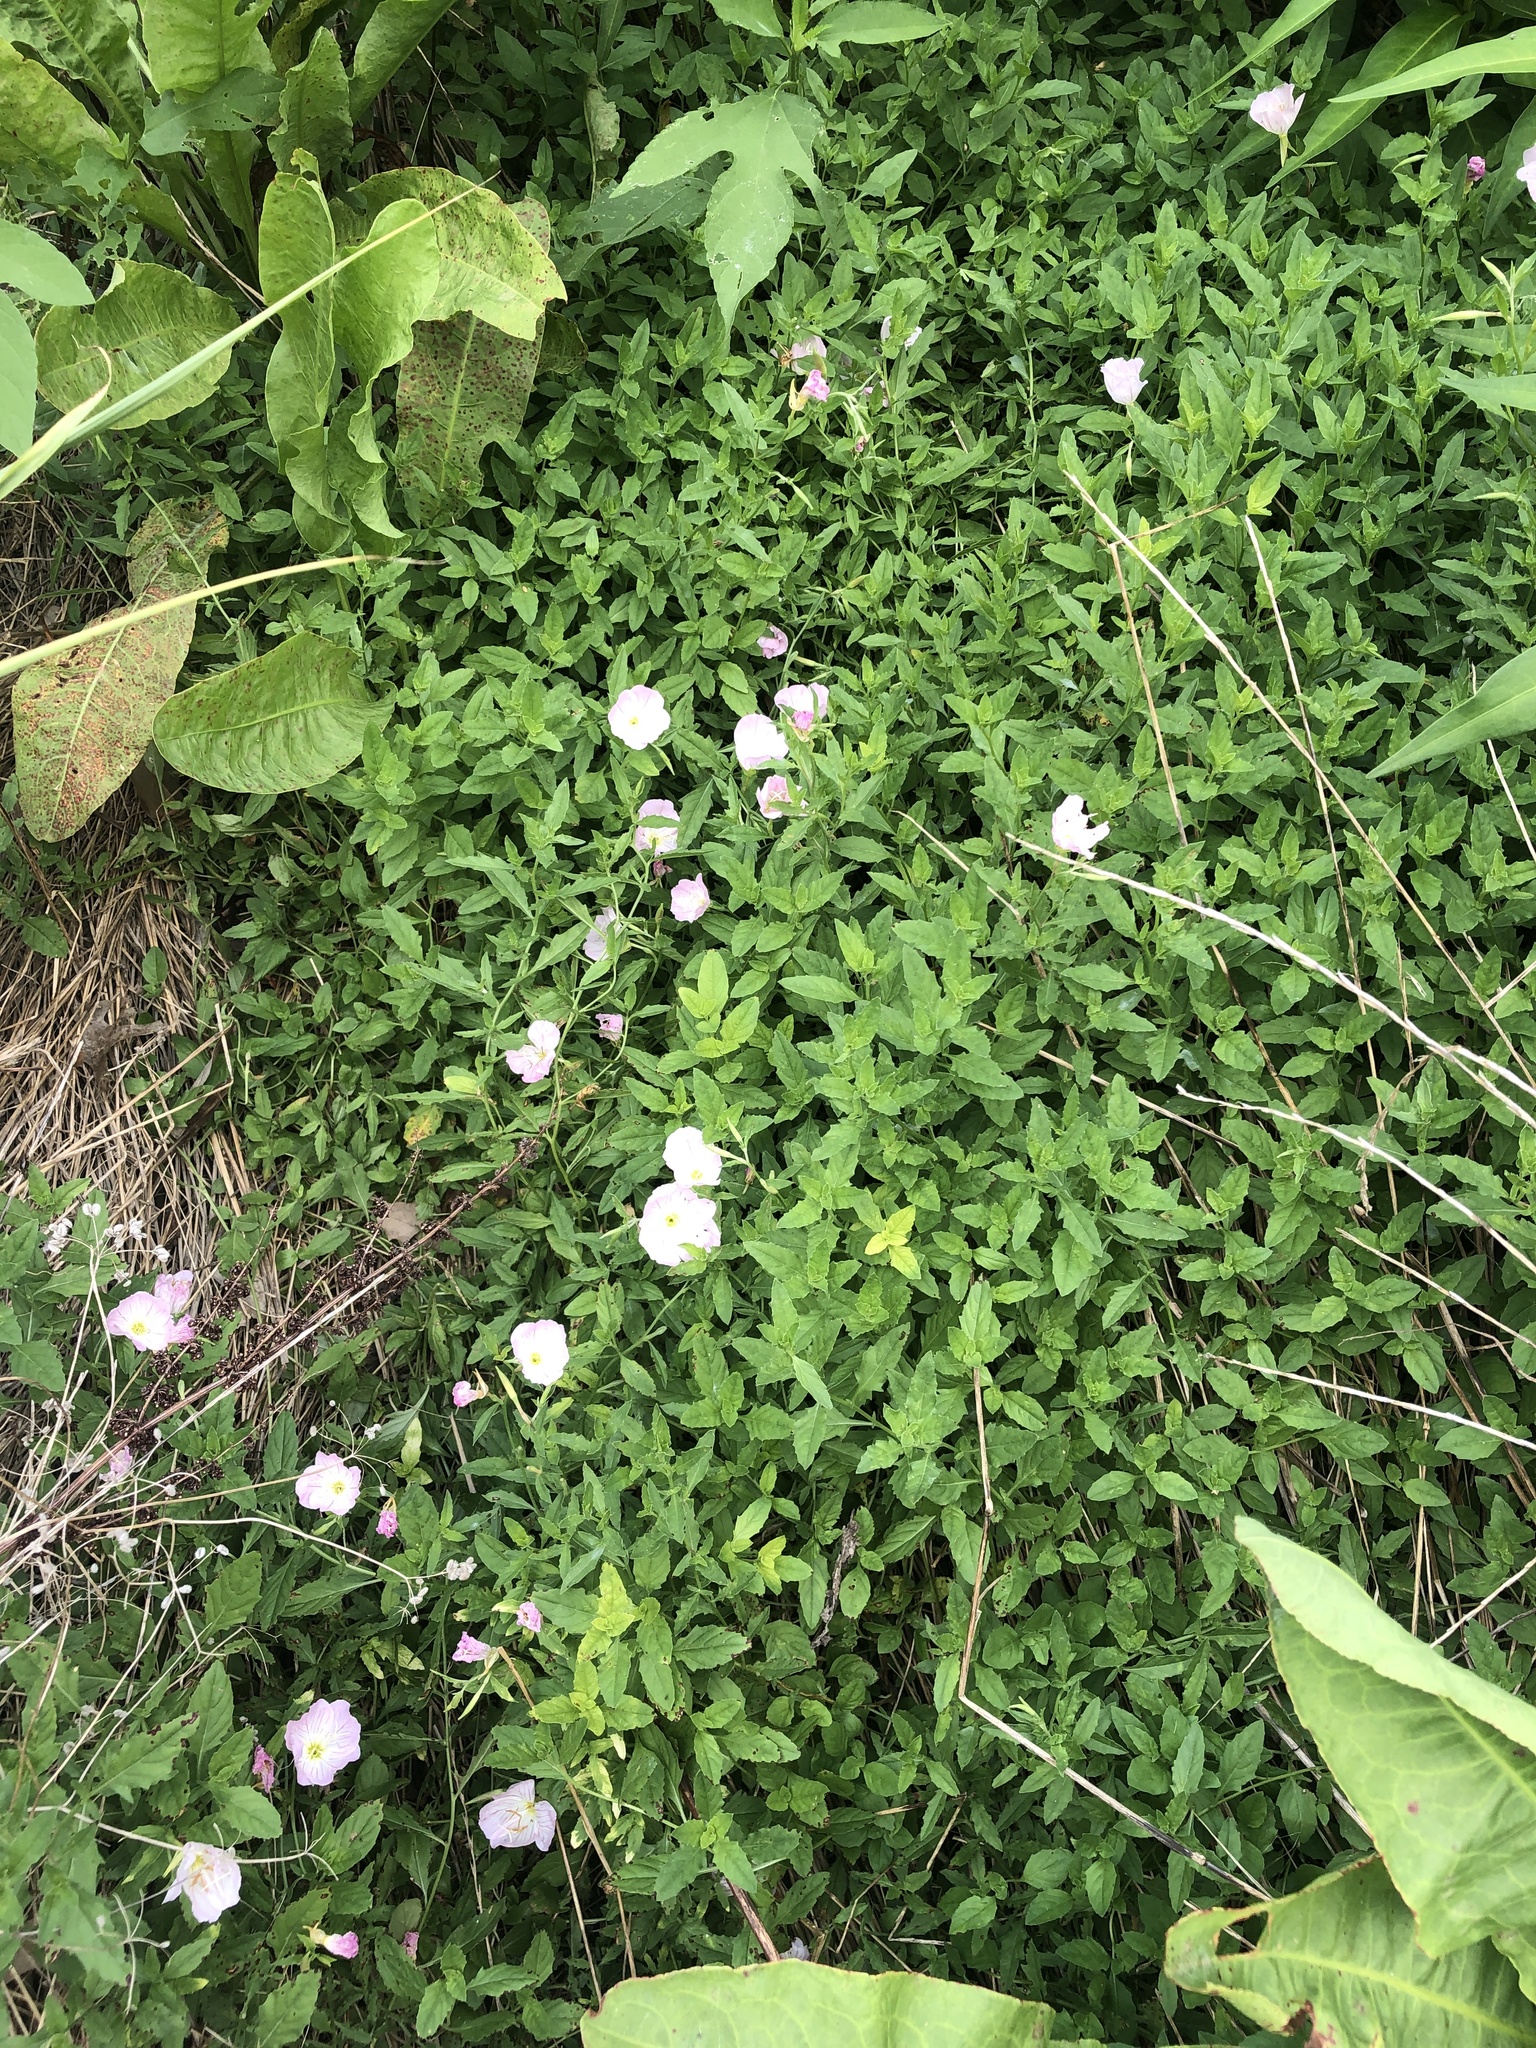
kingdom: Plantae
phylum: Tracheophyta
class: Magnoliopsida
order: Myrtales
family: Onagraceae
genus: Oenothera
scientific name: Oenothera speciosa
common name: White evening-primrose
